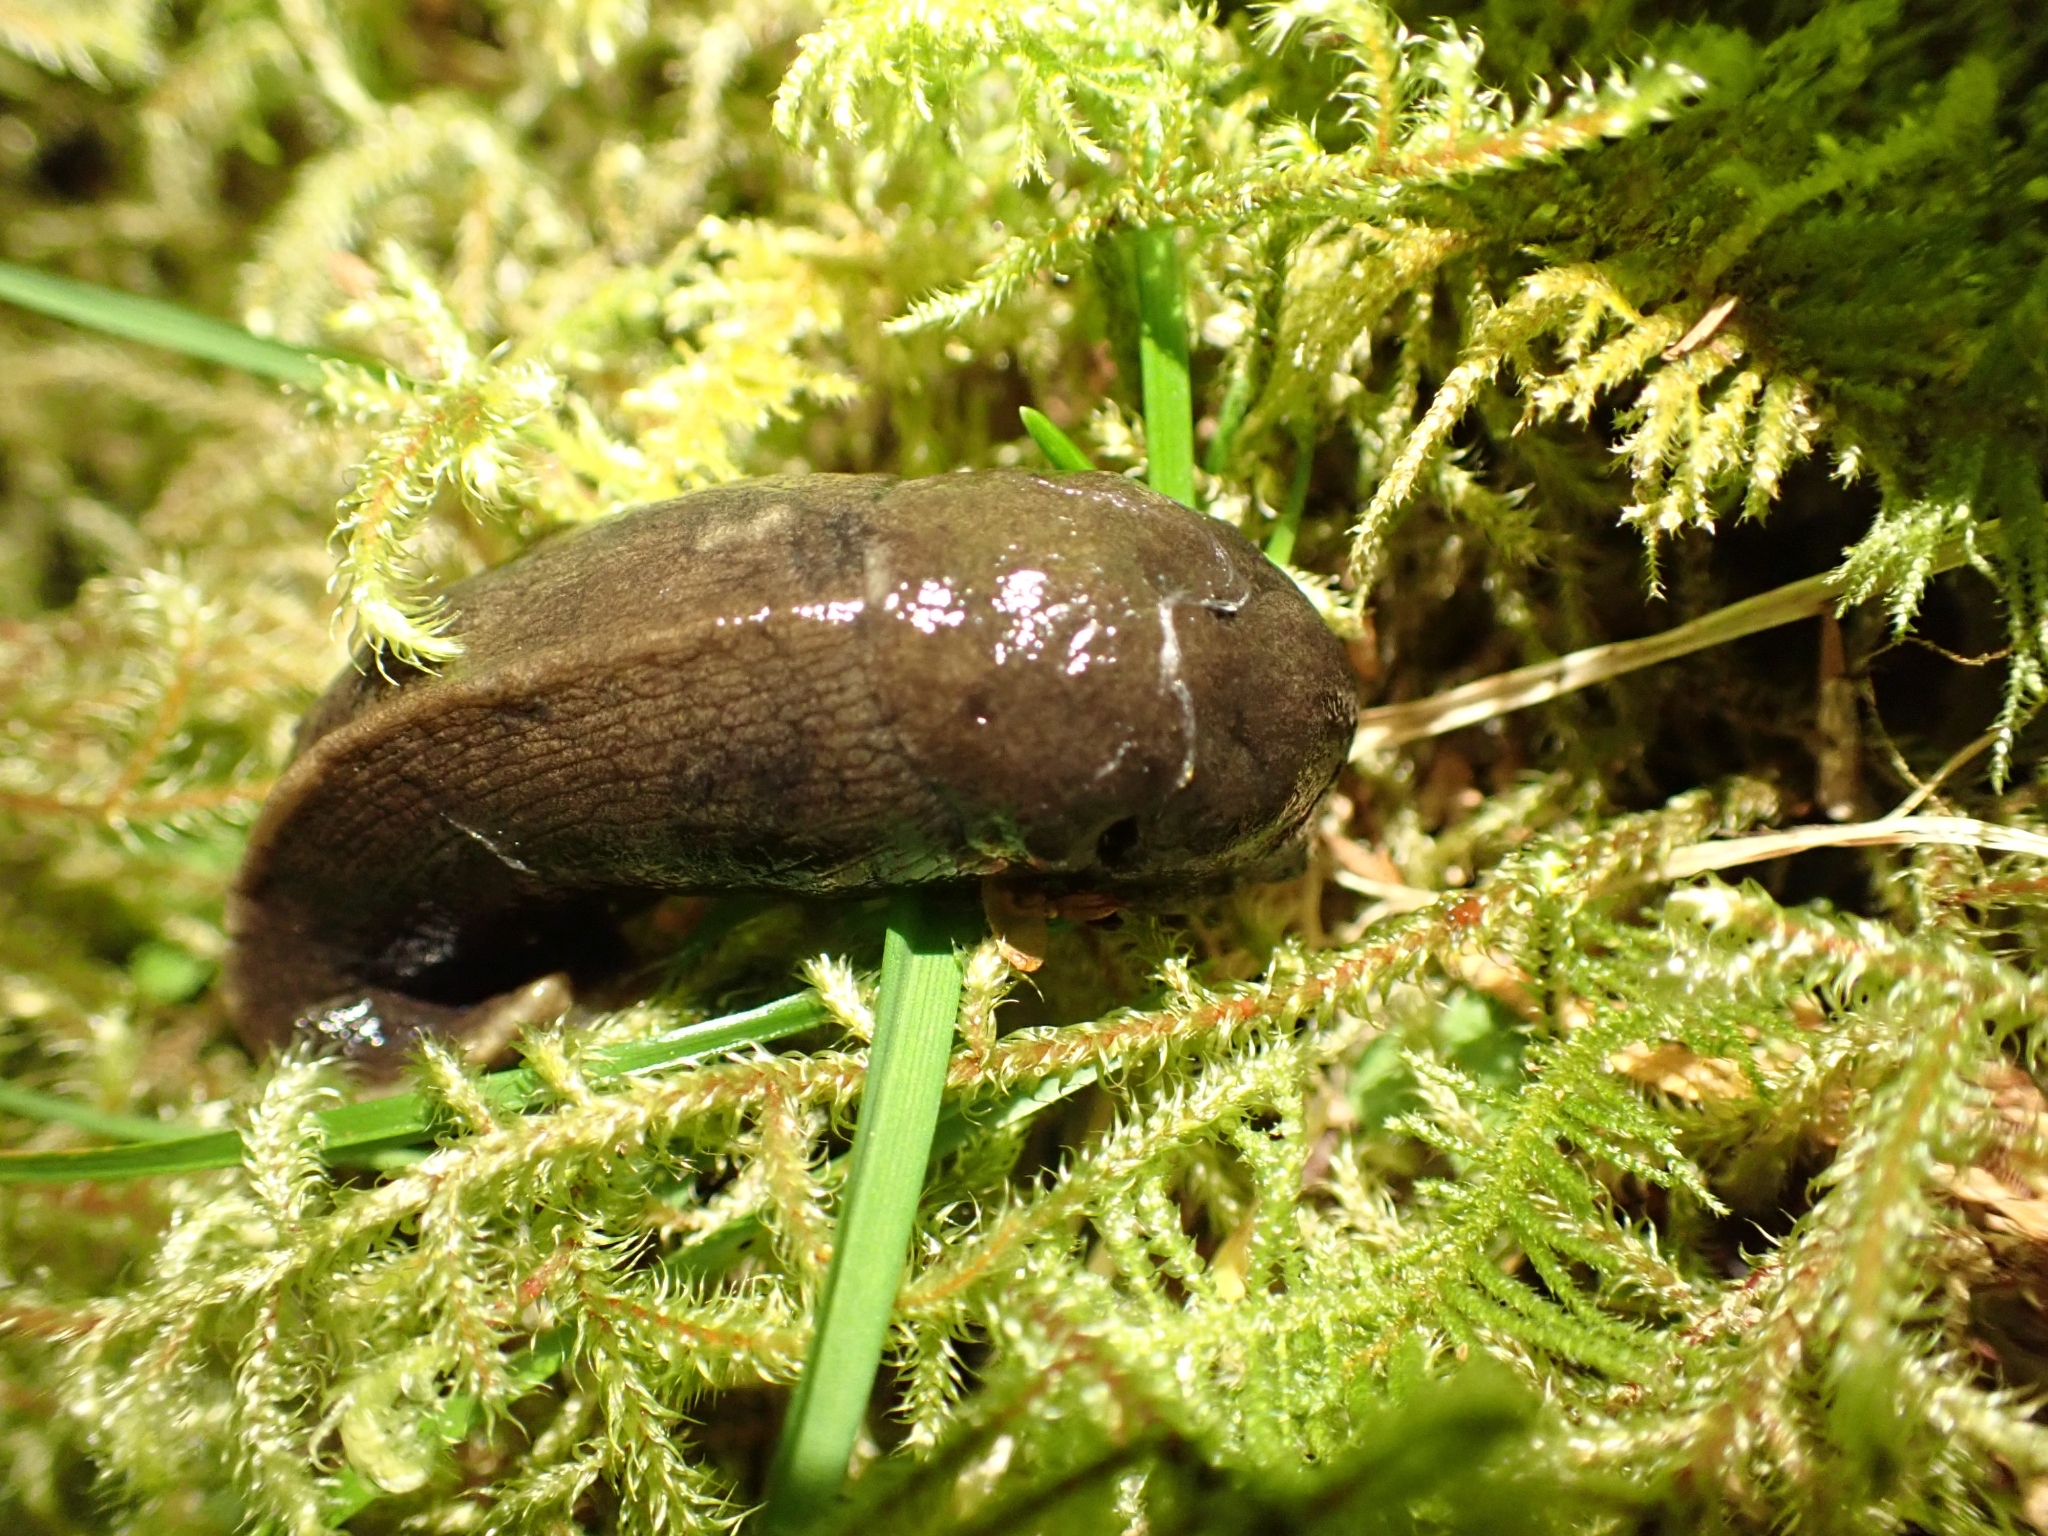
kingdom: Animalia
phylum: Mollusca
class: Gastropoda
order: Stylommatophora
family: Ariolimacidae
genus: Ariolimax
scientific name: Ariolimax columbianus
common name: Pacific banana slug
